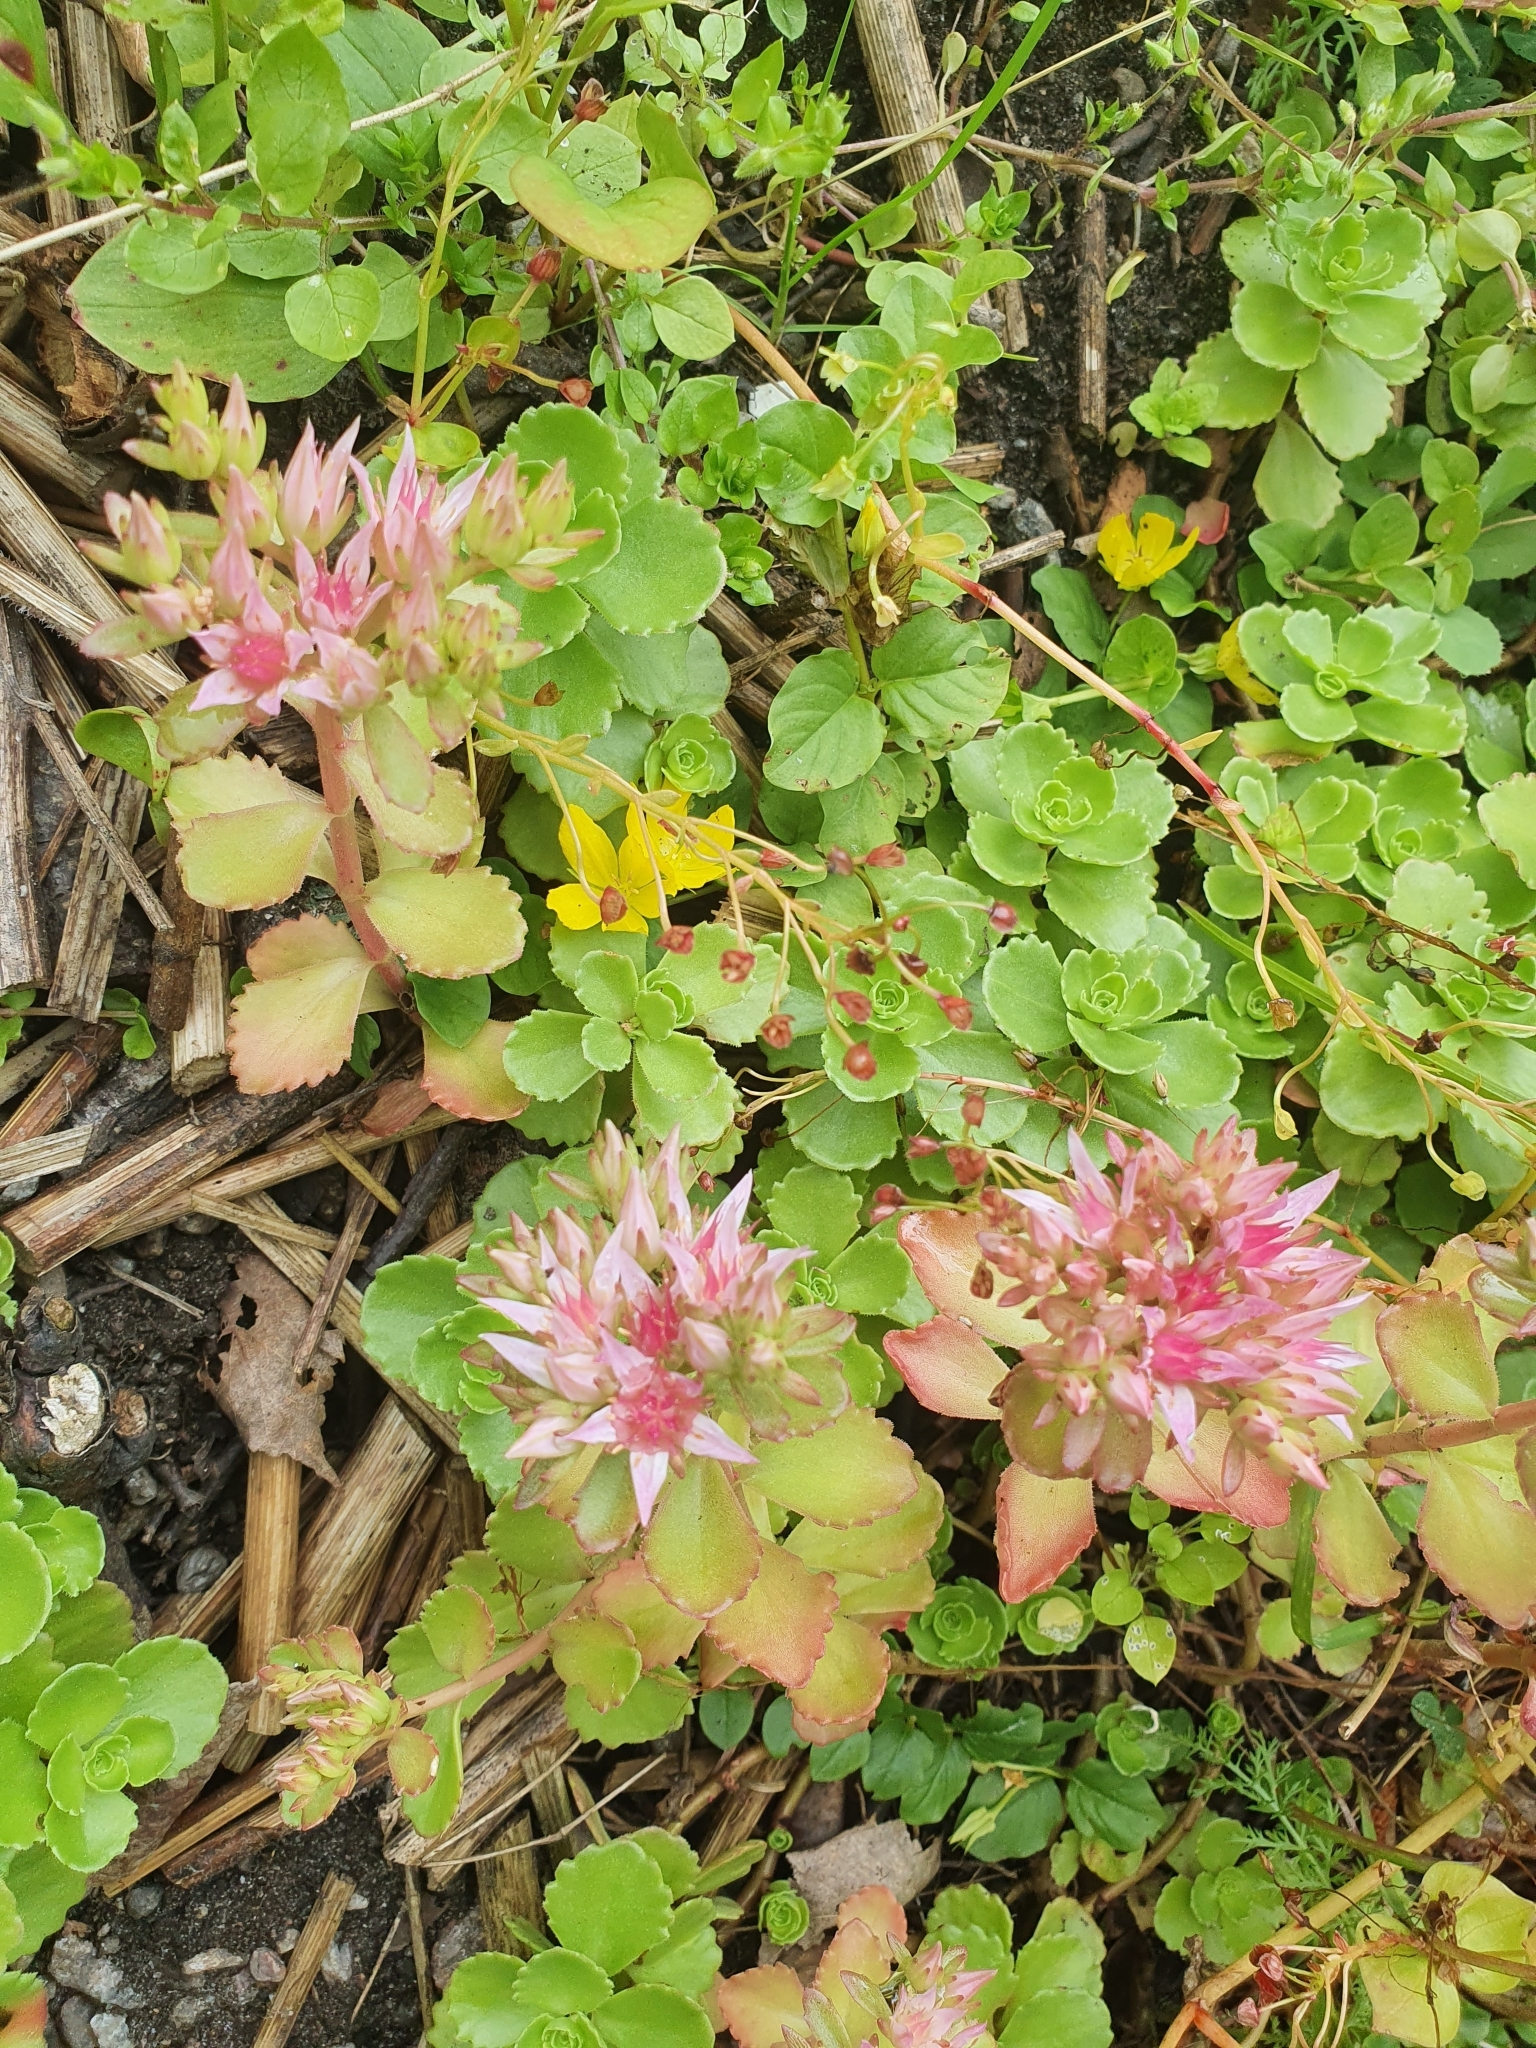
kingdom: Plantae
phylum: Tracheophyta
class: Magnoliopsida
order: Saxifragales
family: Crassulaceae
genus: Phedimus
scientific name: Phedimus spurius
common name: Caucasian stonecrop
